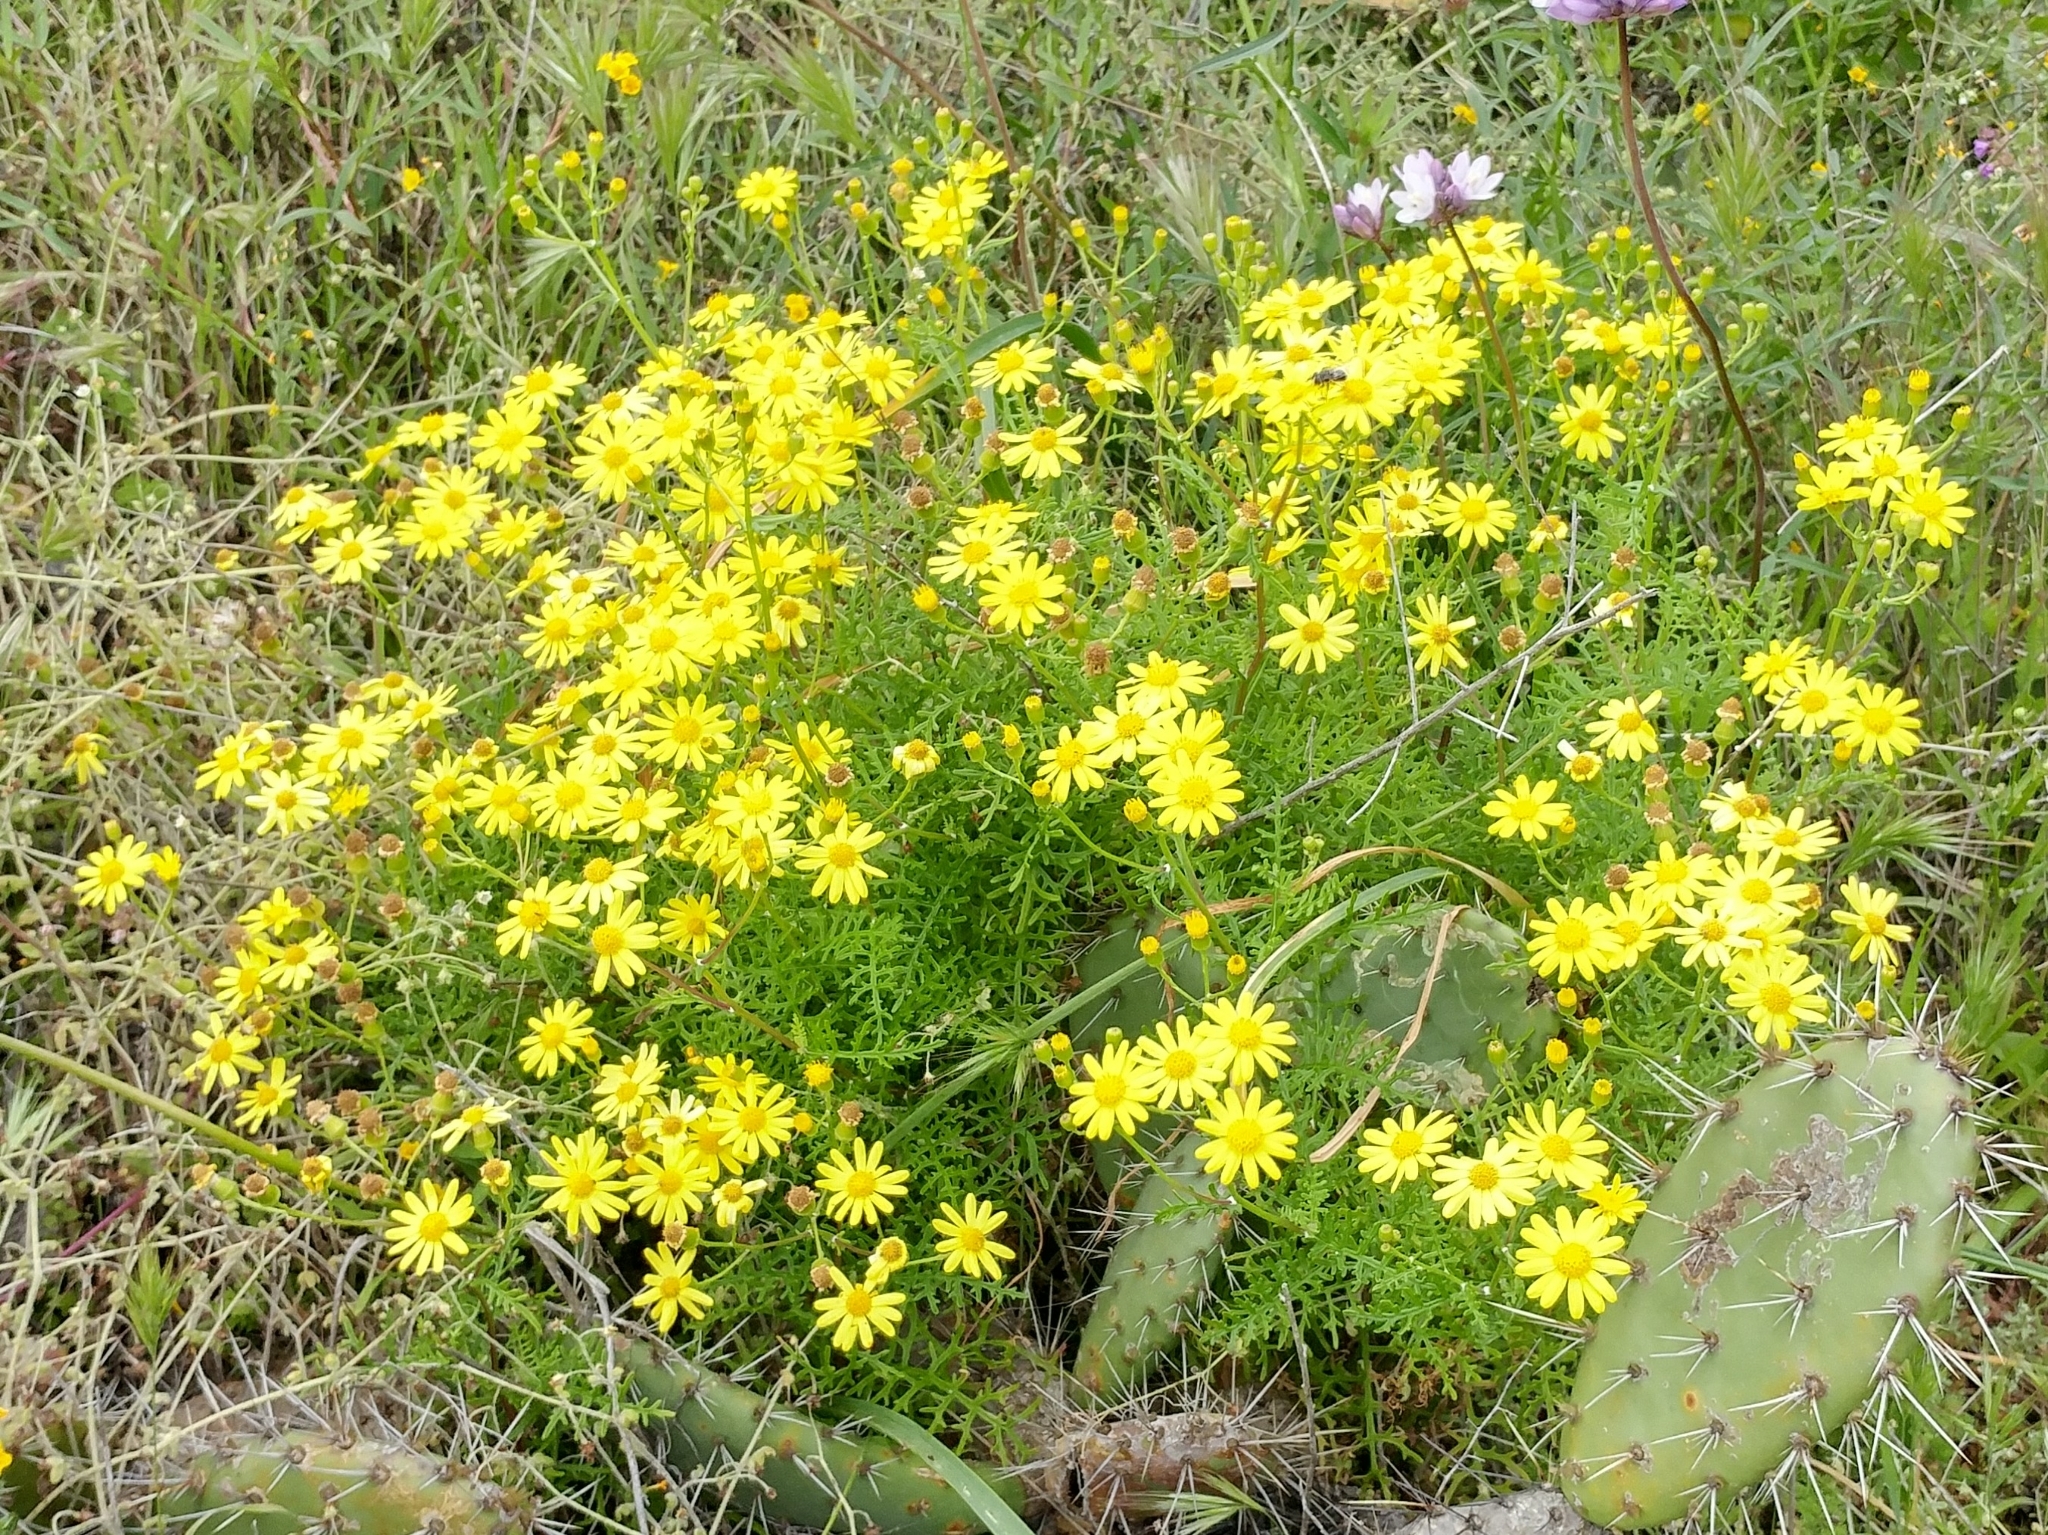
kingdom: Plantae
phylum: Tracheophyta
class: Magnoliopsida
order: Asterales
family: Asteraceae
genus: Senecio
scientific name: Senecio lyonii
